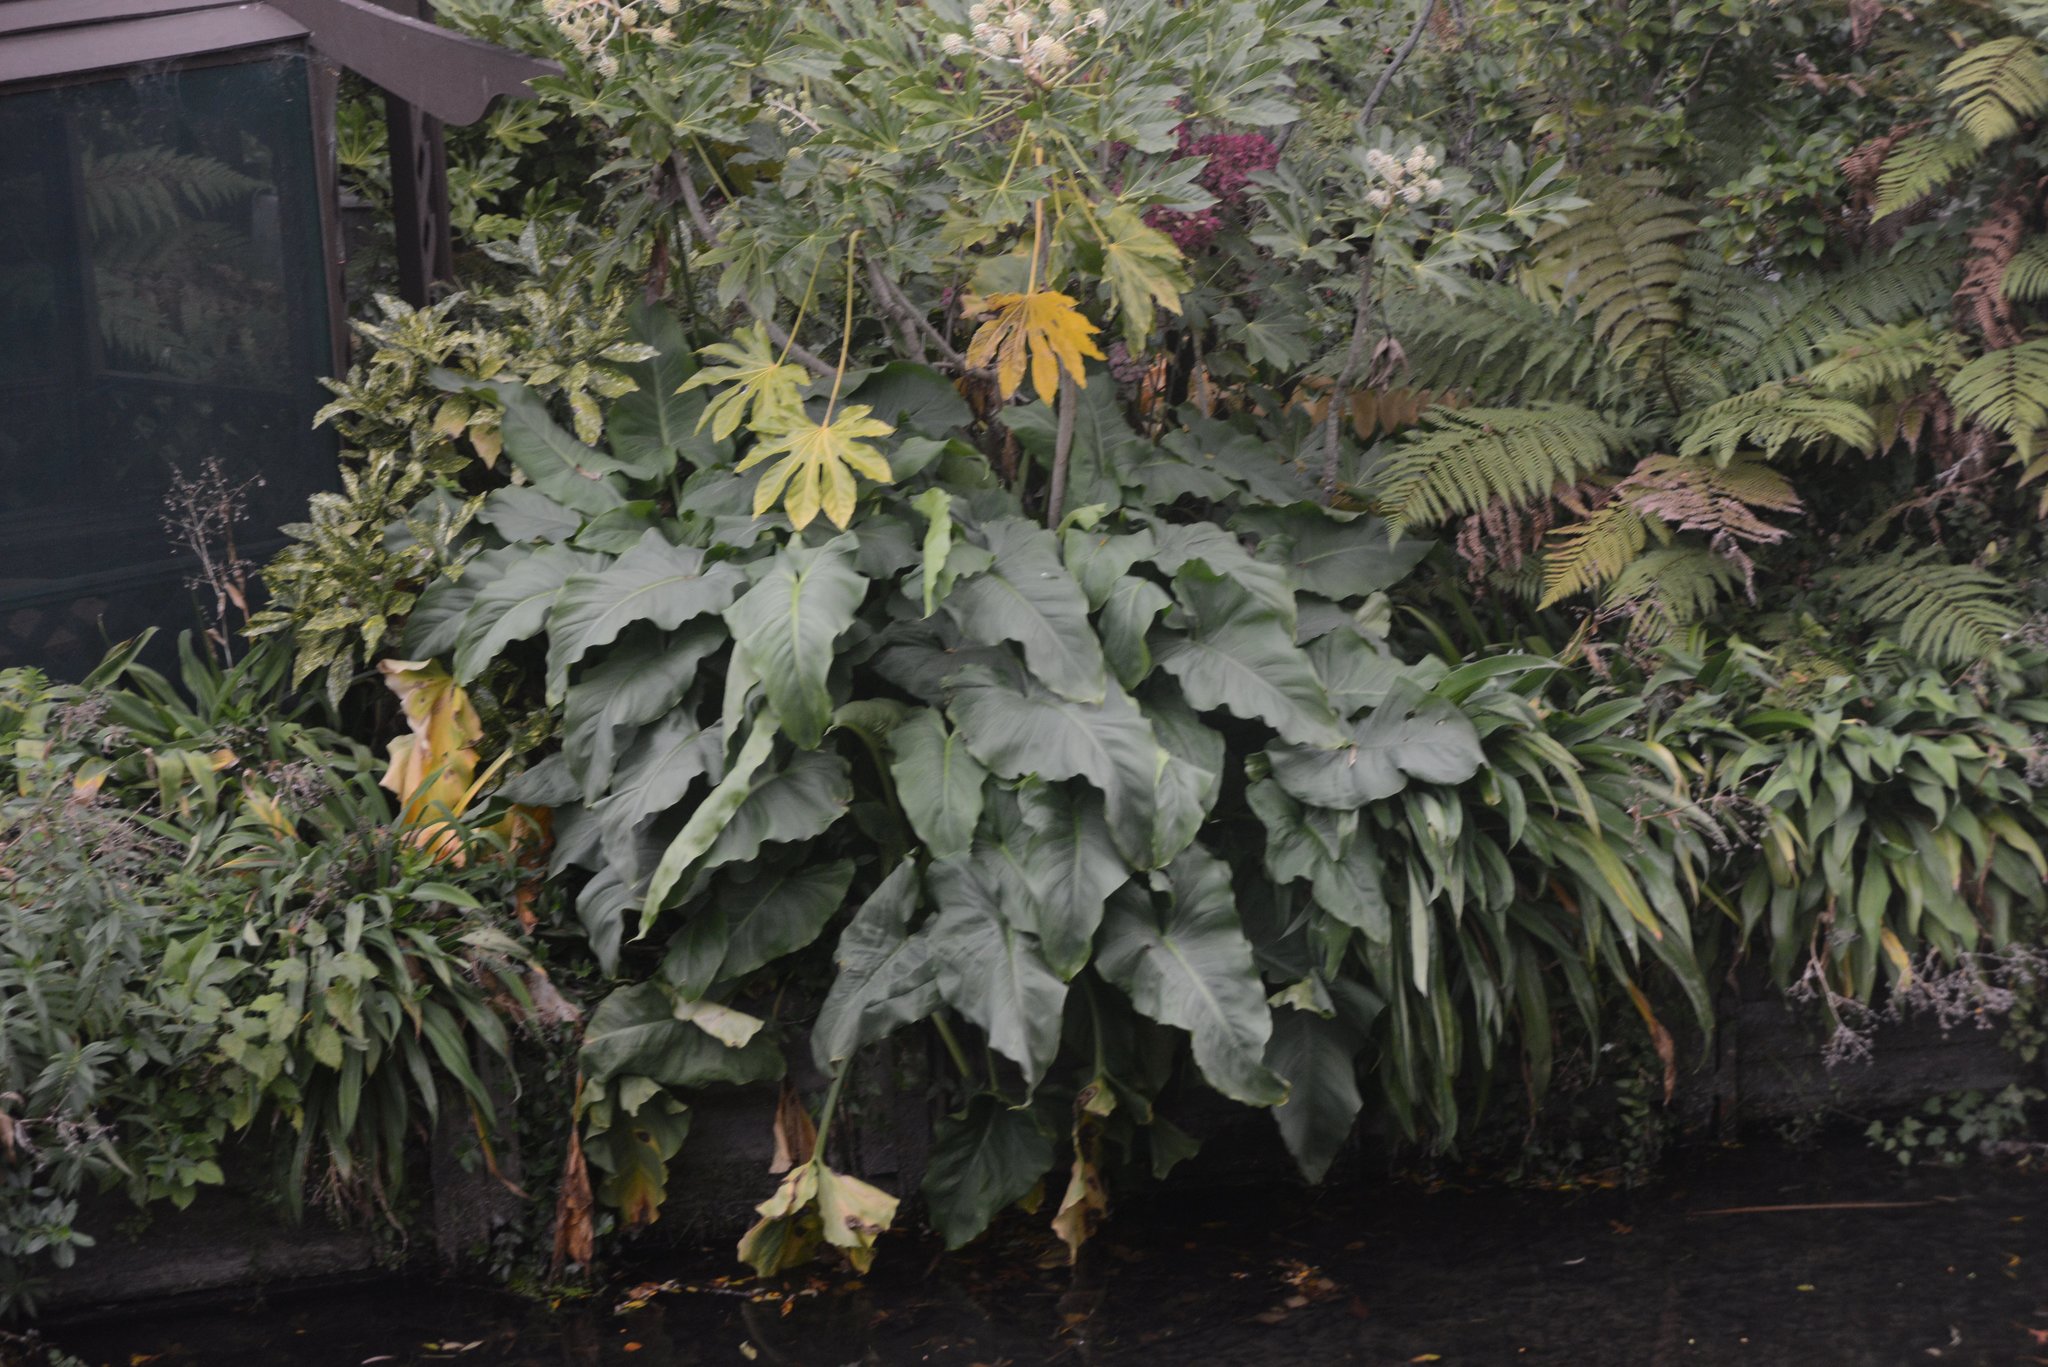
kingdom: Plantae
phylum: Tracheophyta
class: Liliopsida
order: Alismatales
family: Araceae
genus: Zantedeschia
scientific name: Zantedeschia aethiopica
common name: Altar-lily
